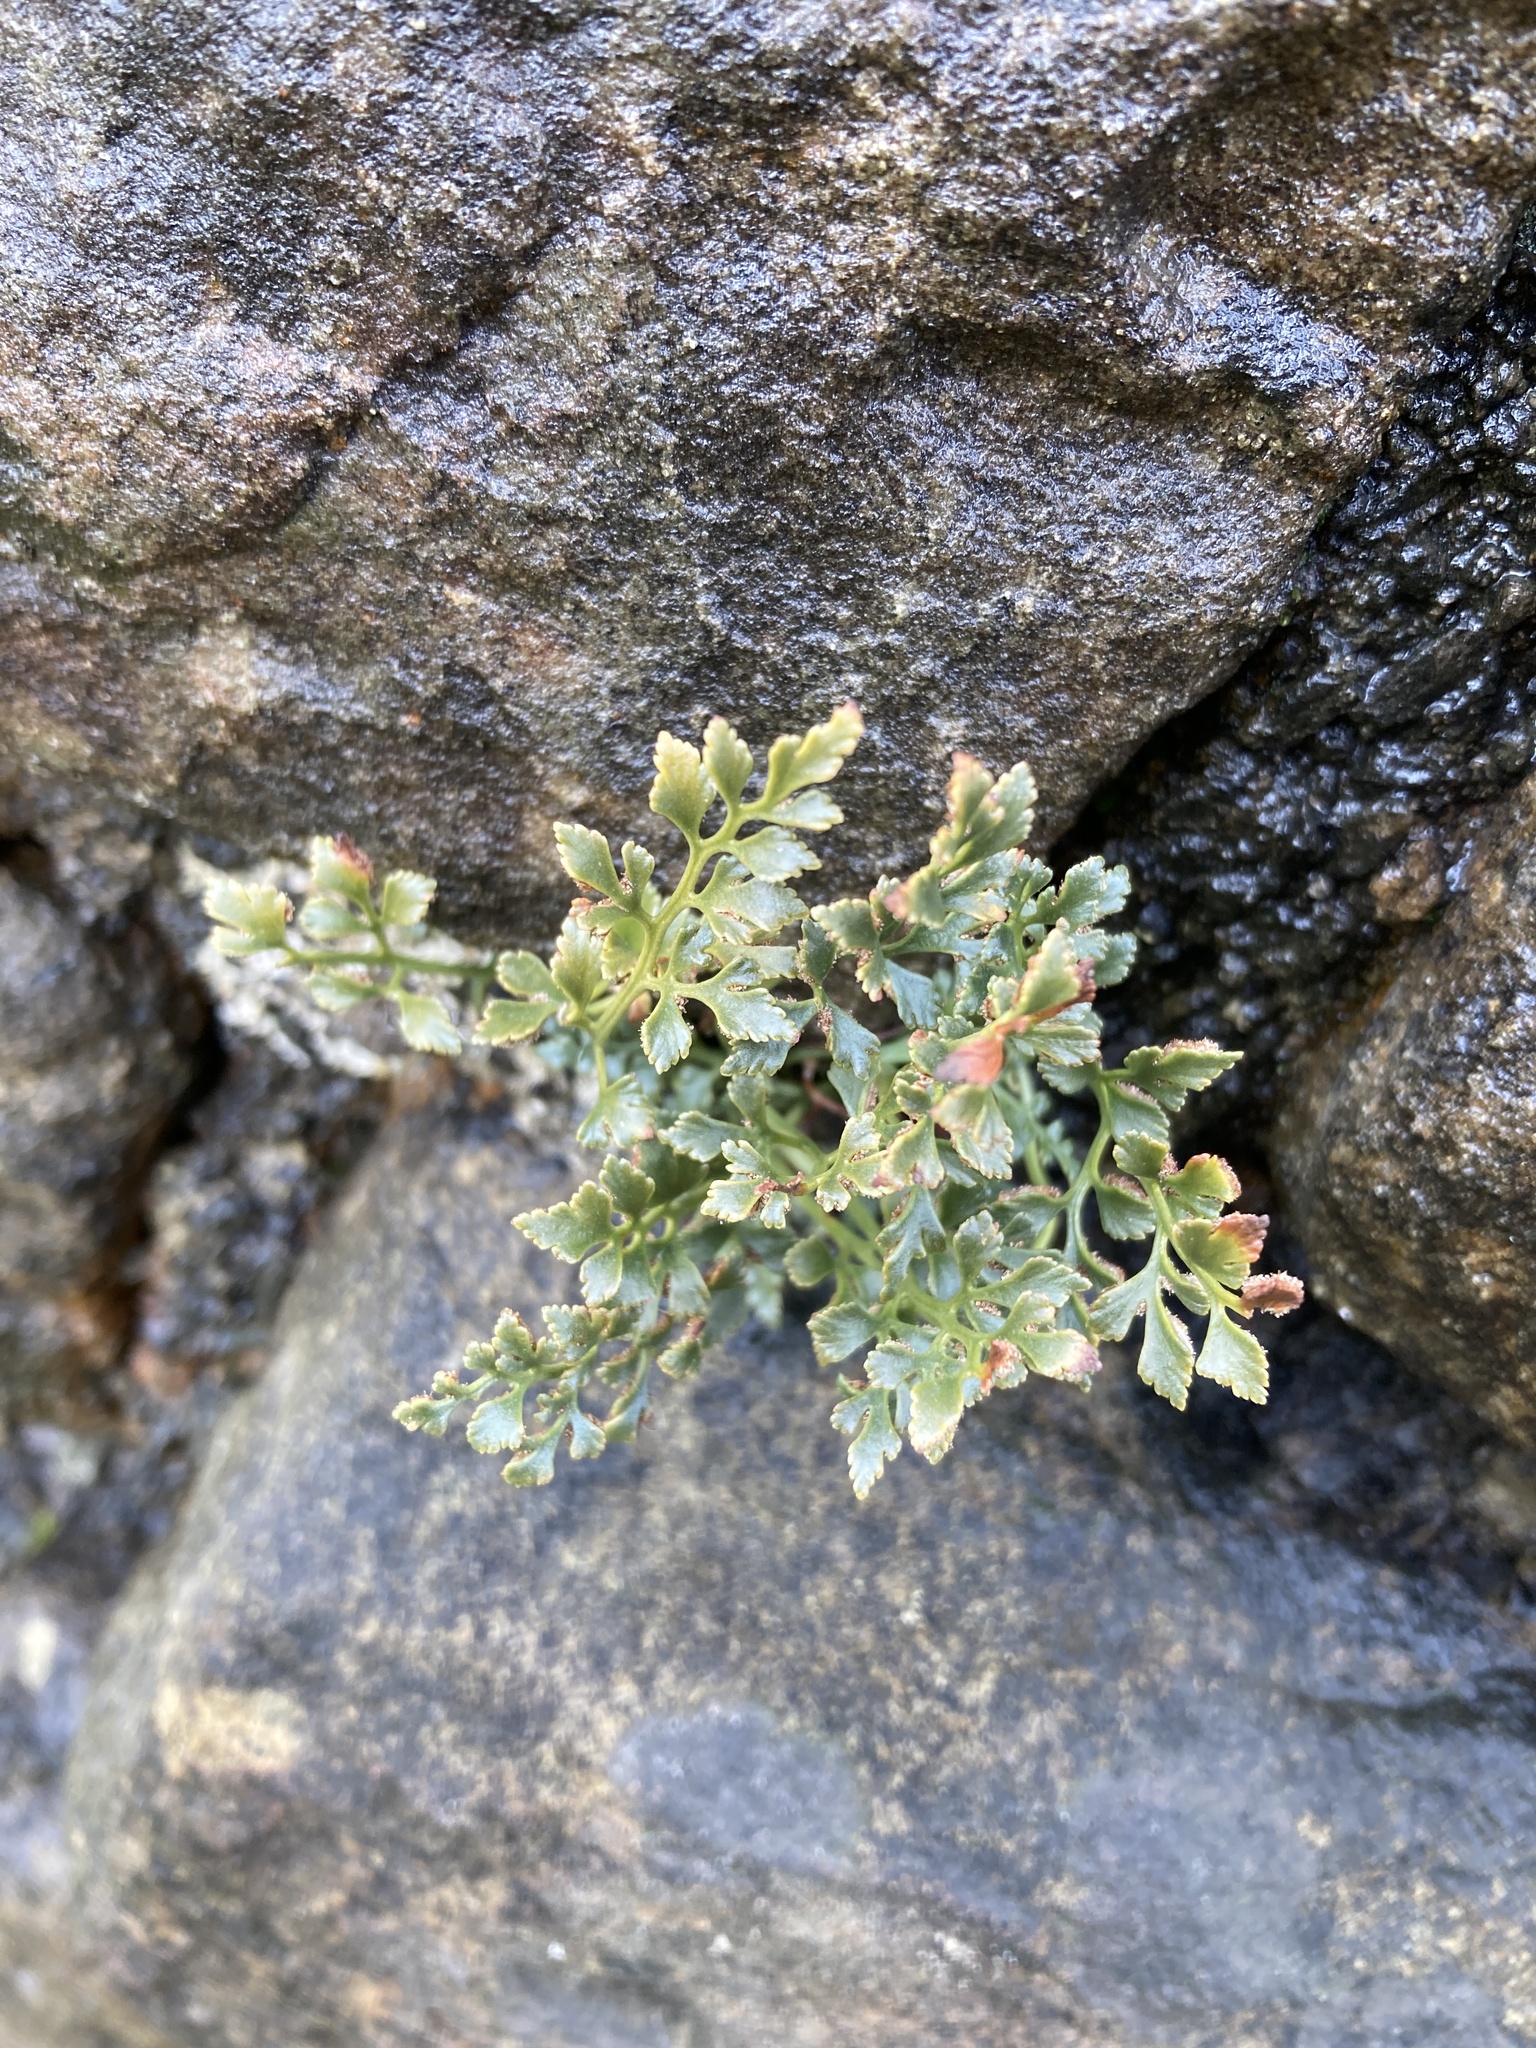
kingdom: Plantae
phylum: Tracheophyta
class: Polypodiopsida
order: Polypodiales
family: Aspleniaceae
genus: Asplenium
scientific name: Asplenium ruta-muraria
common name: Wall-rue
